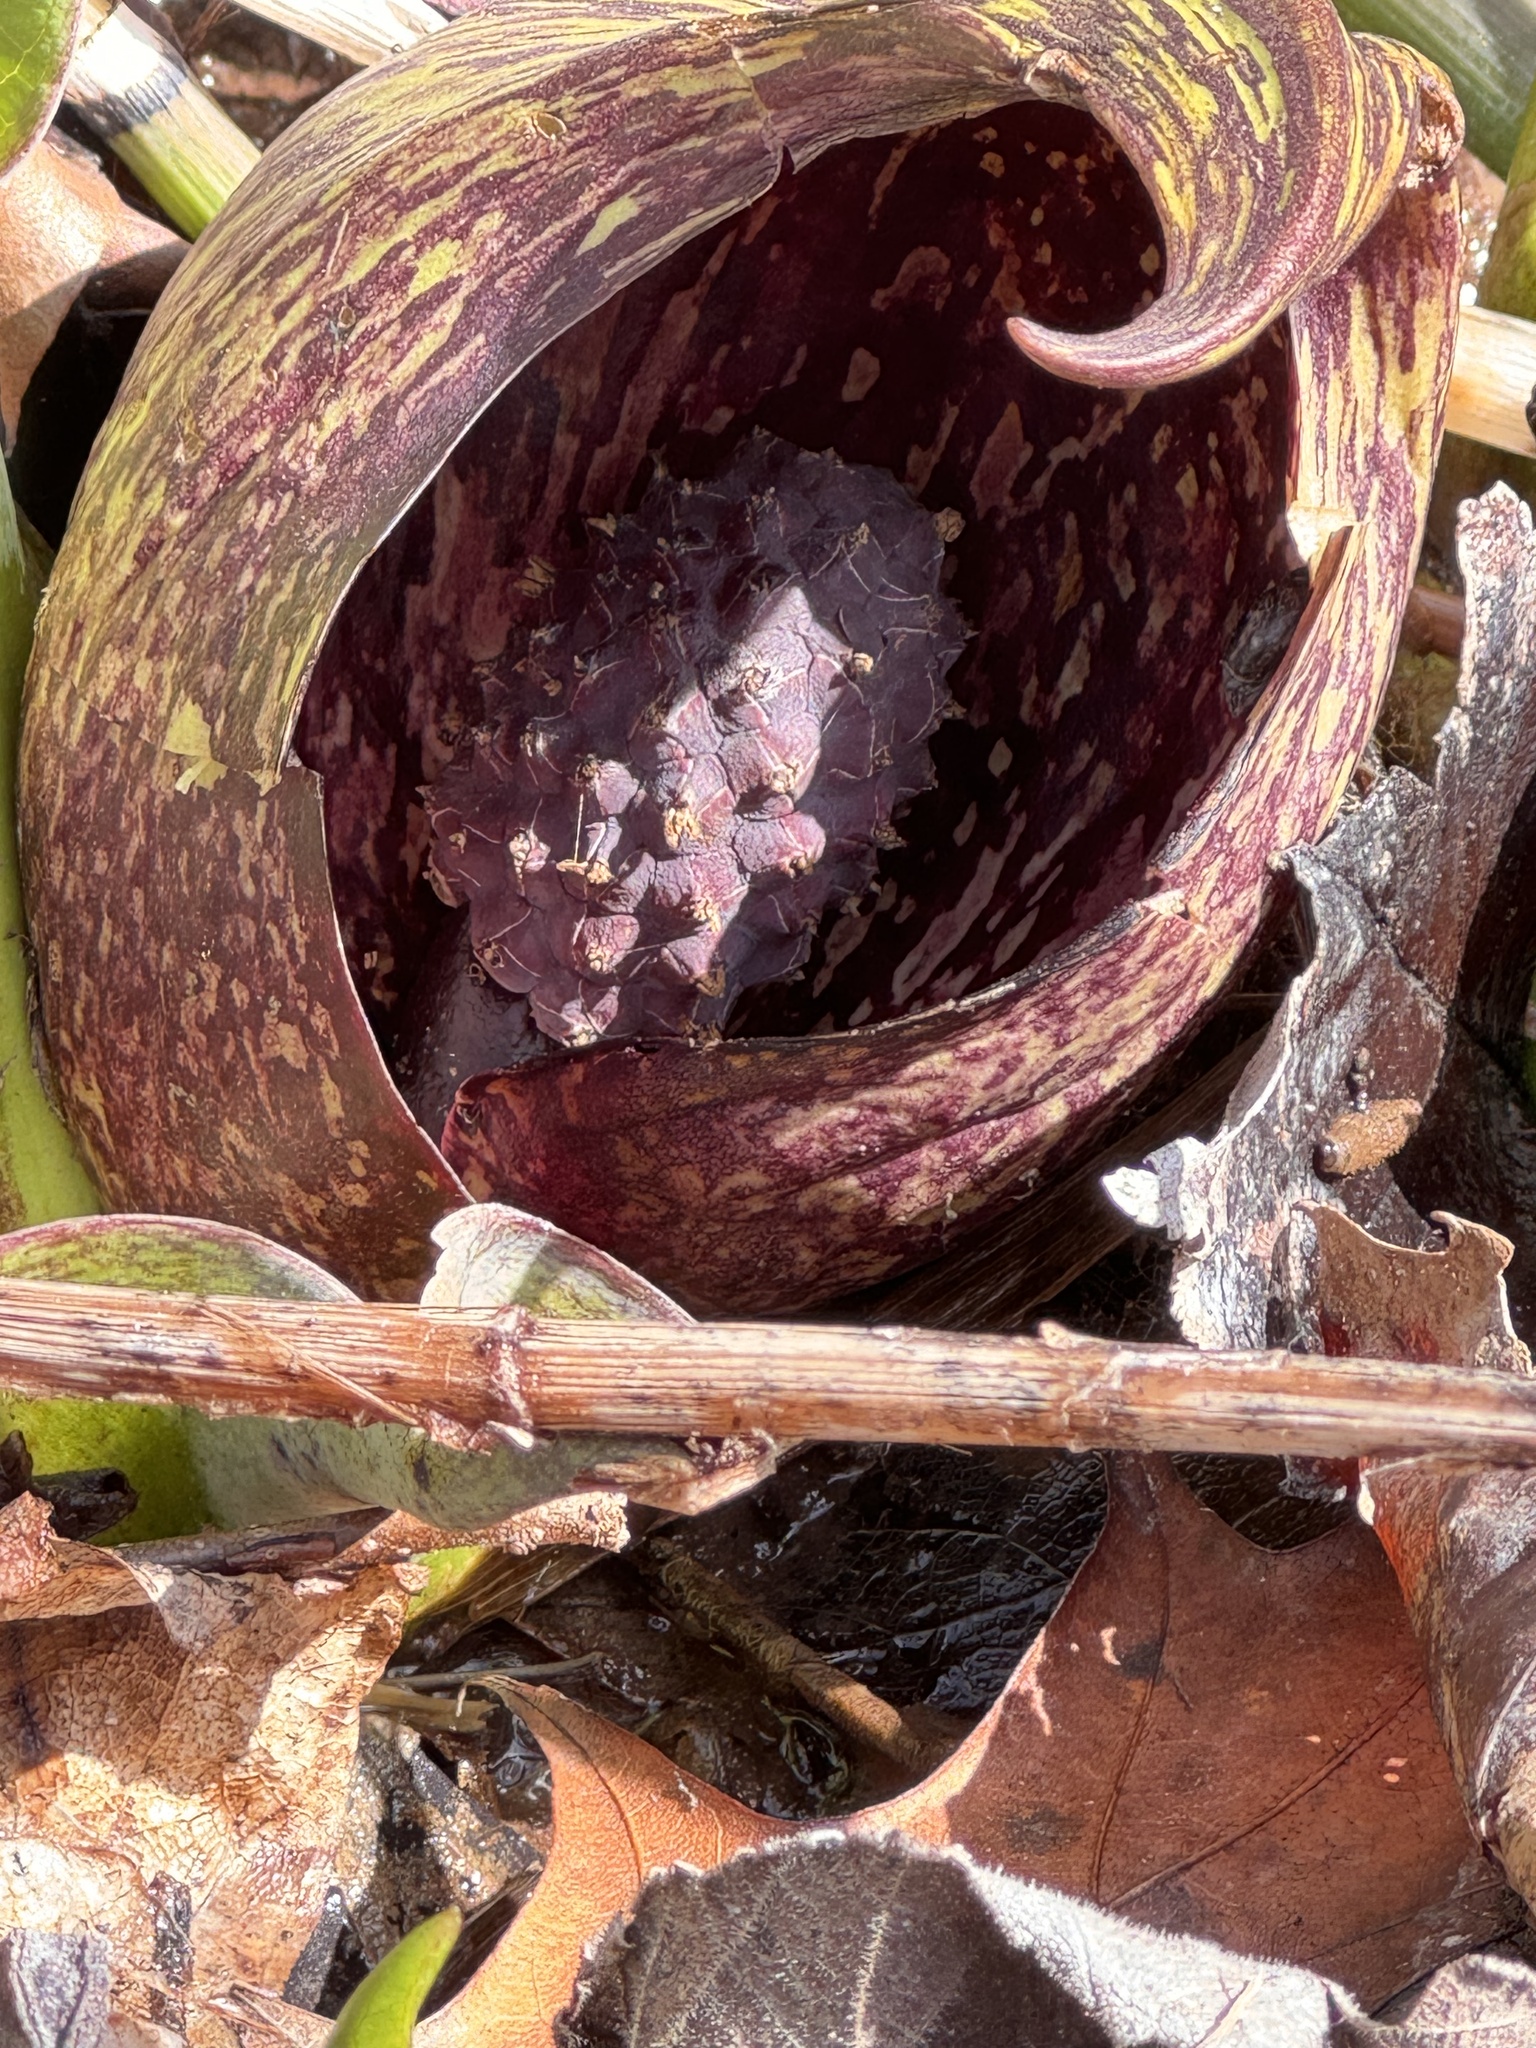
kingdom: Plantae
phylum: Tracheophyta
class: Liliopsida
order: Alismatales
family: Araceae
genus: Symplocarpus
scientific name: Symplocarpus foetidus
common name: Eastern skunk cabbage
